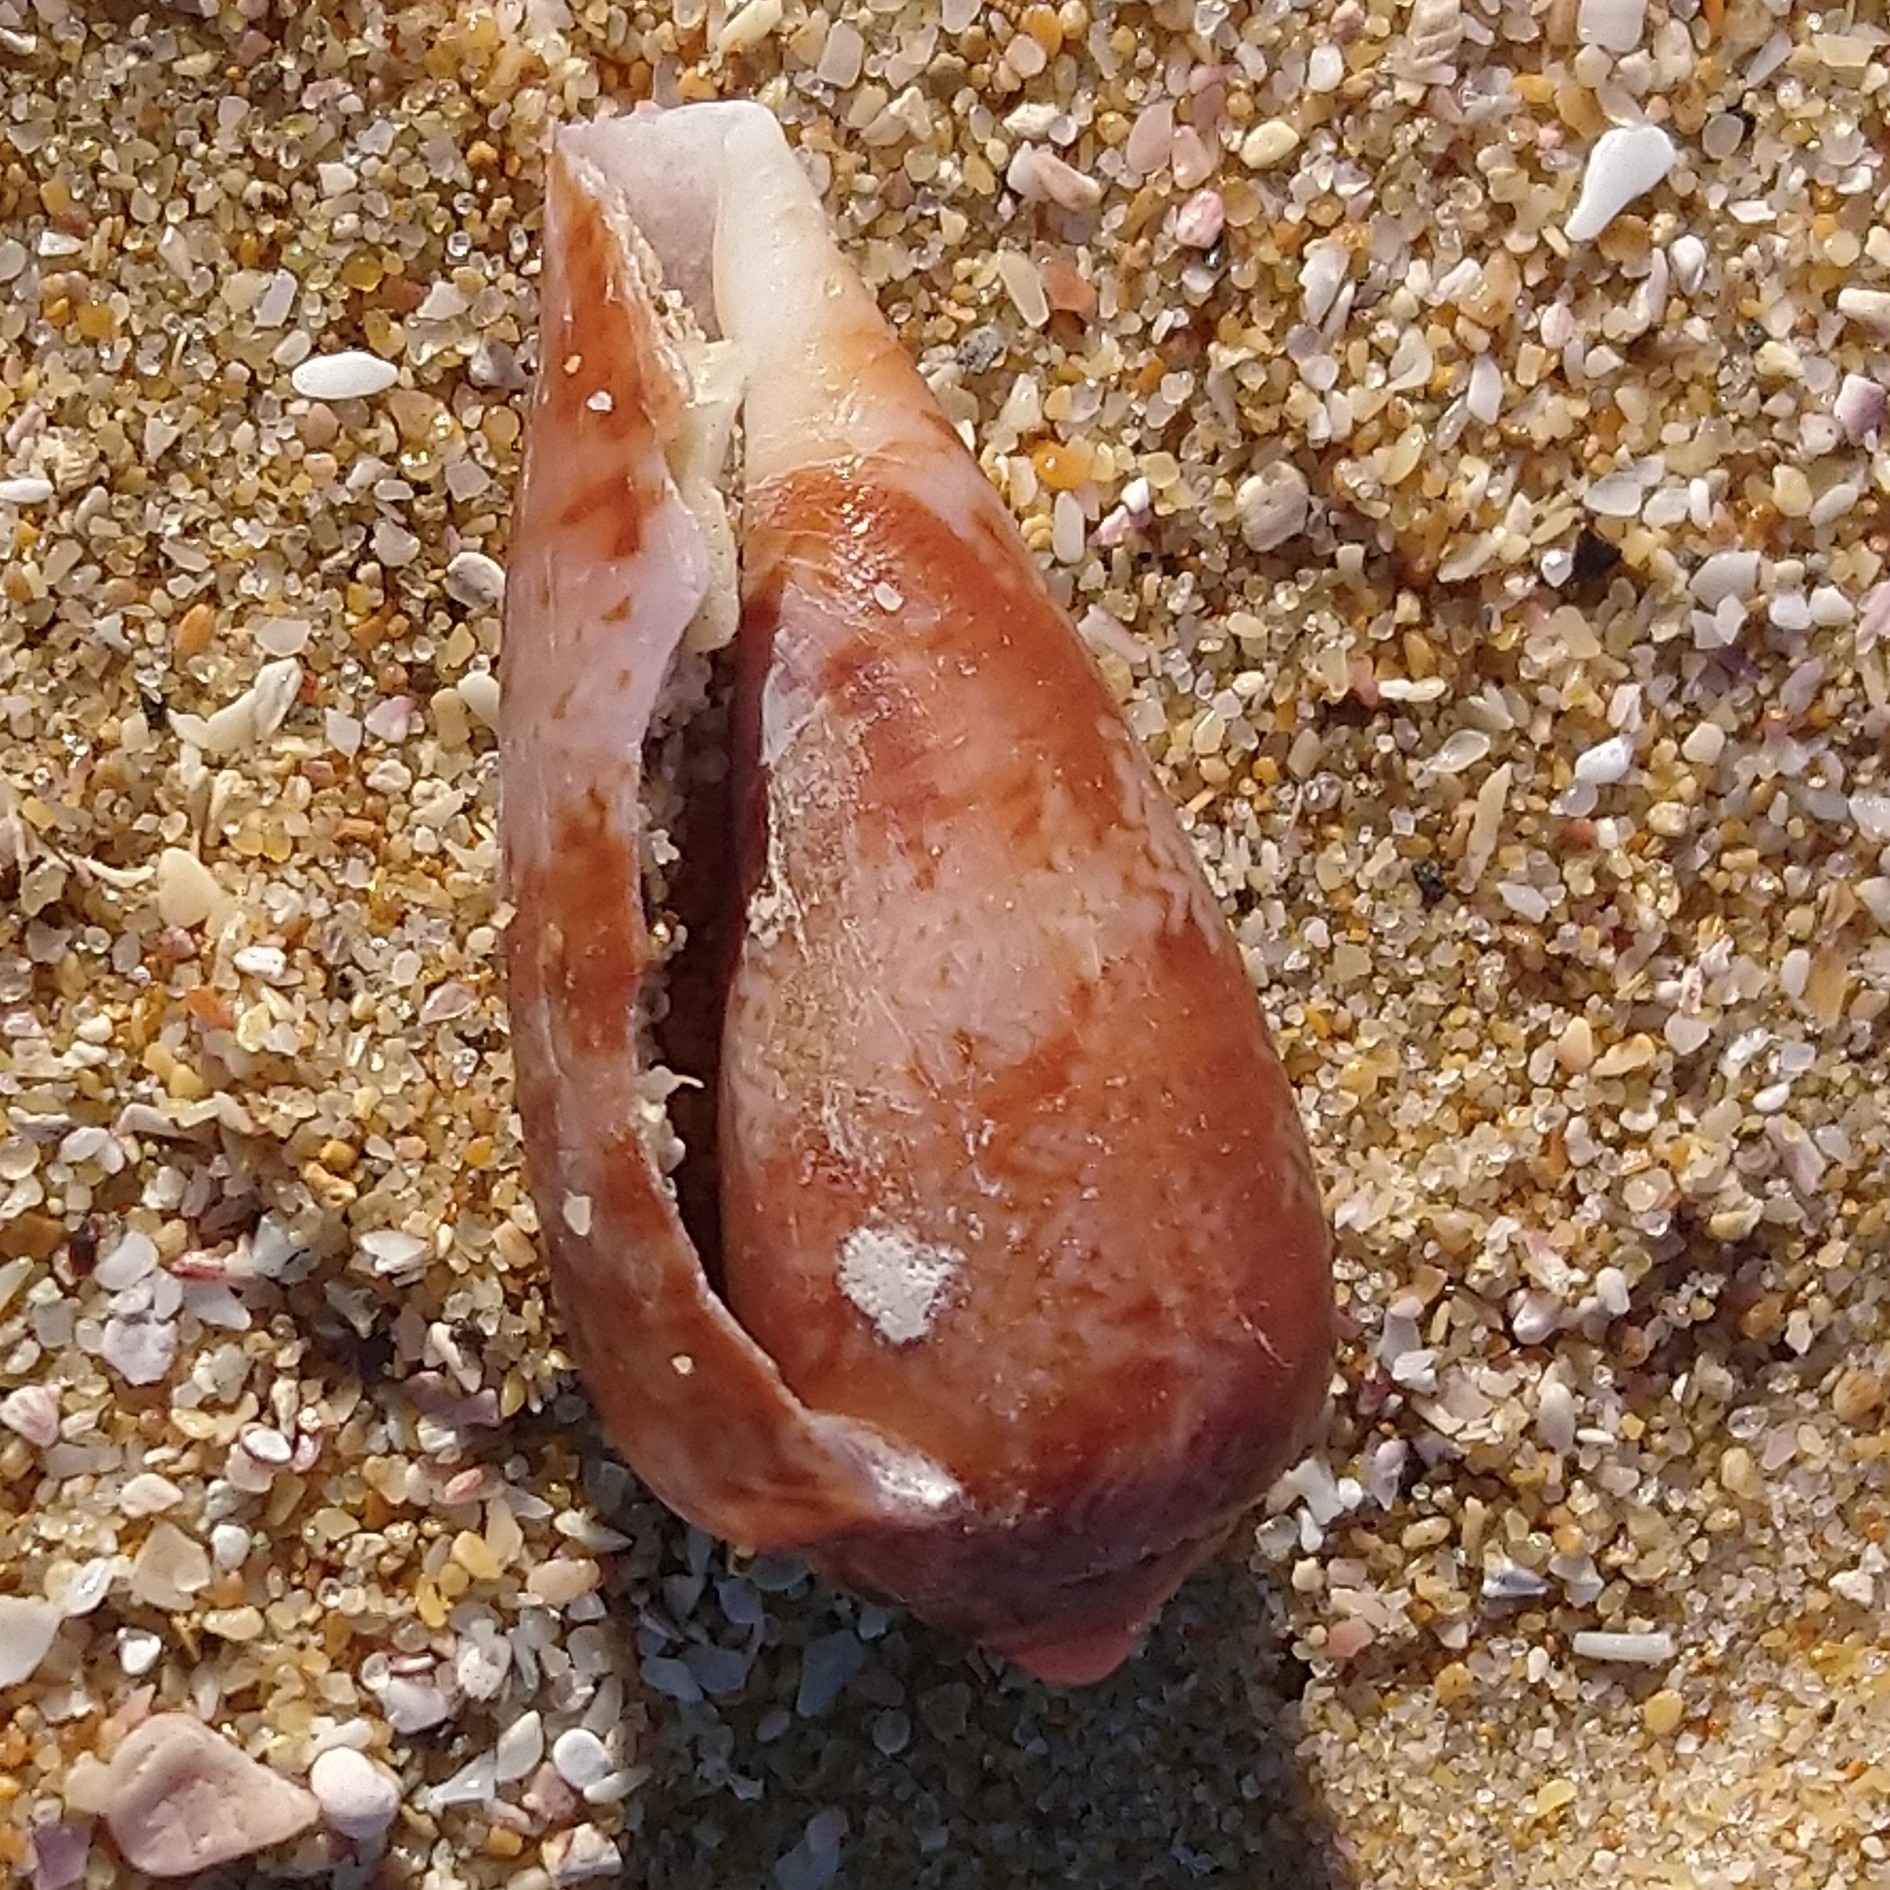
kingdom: Animalia
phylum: Mollusca
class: Gastropoda
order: Neogastropoda
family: Conidae
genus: Conus
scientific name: Conus tinianus
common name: Ruddy cone
